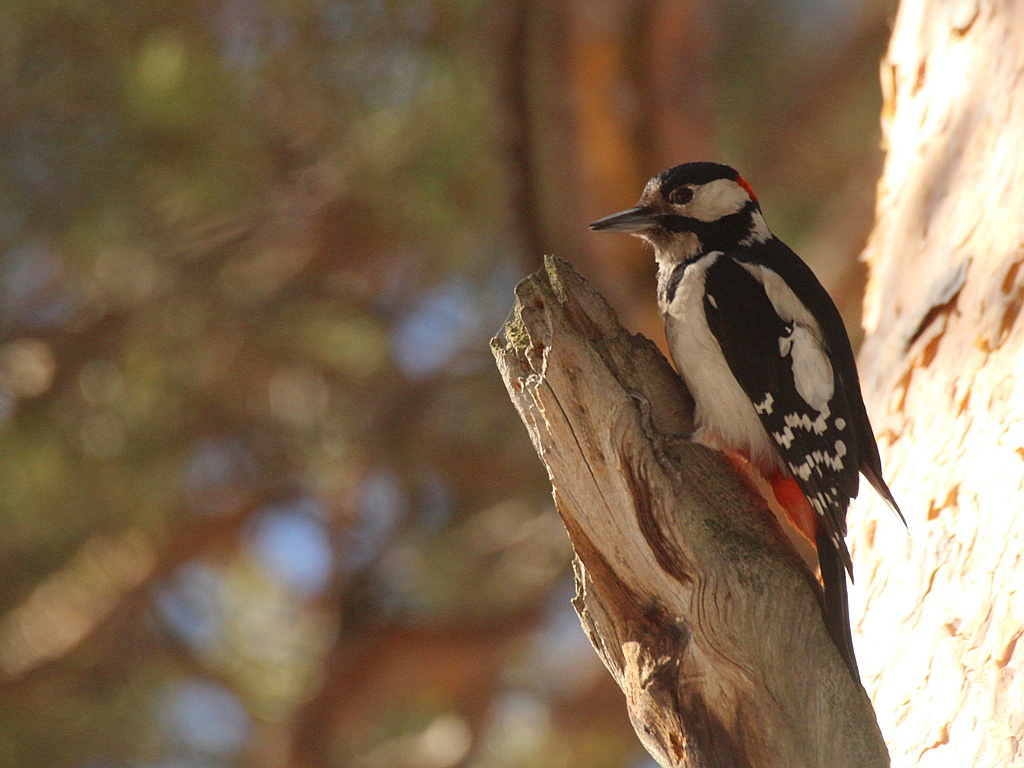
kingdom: Animalia
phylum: Chordata
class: Aves
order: Piciformes
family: Picidae
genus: Dendrocopos
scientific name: Dendrocopos major
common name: Great spotted woodpecker
